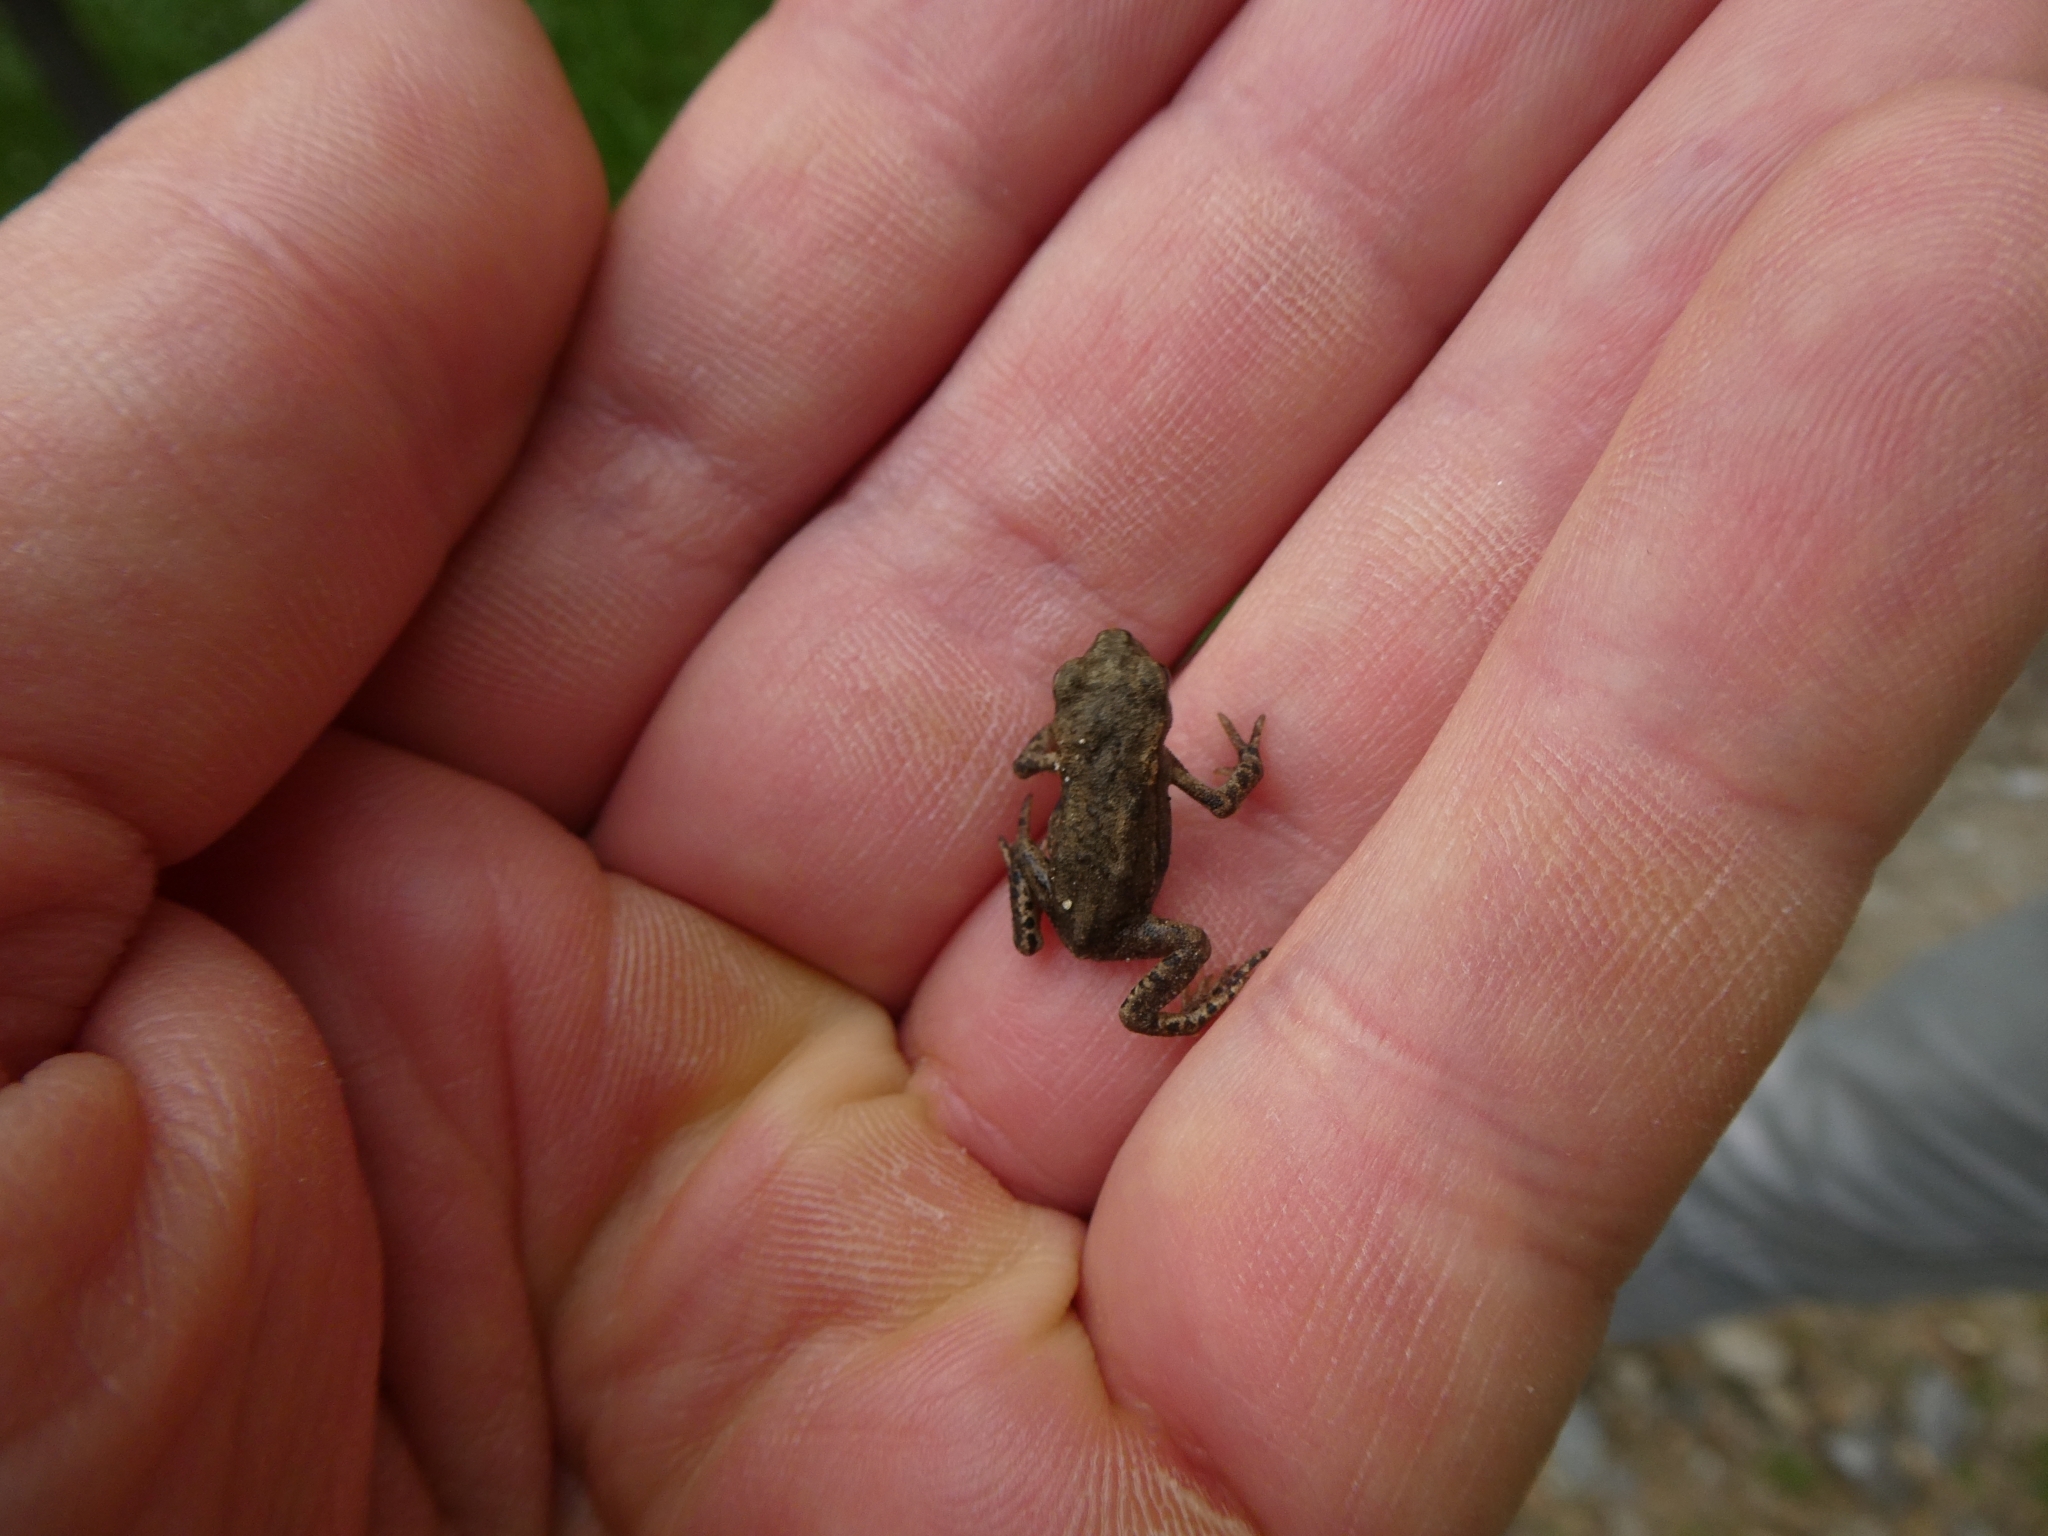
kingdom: Animalia
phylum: Chordata
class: Amphibia
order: Anura
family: Bufonidae
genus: Bufo
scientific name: Bufo bufo
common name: Common toad
